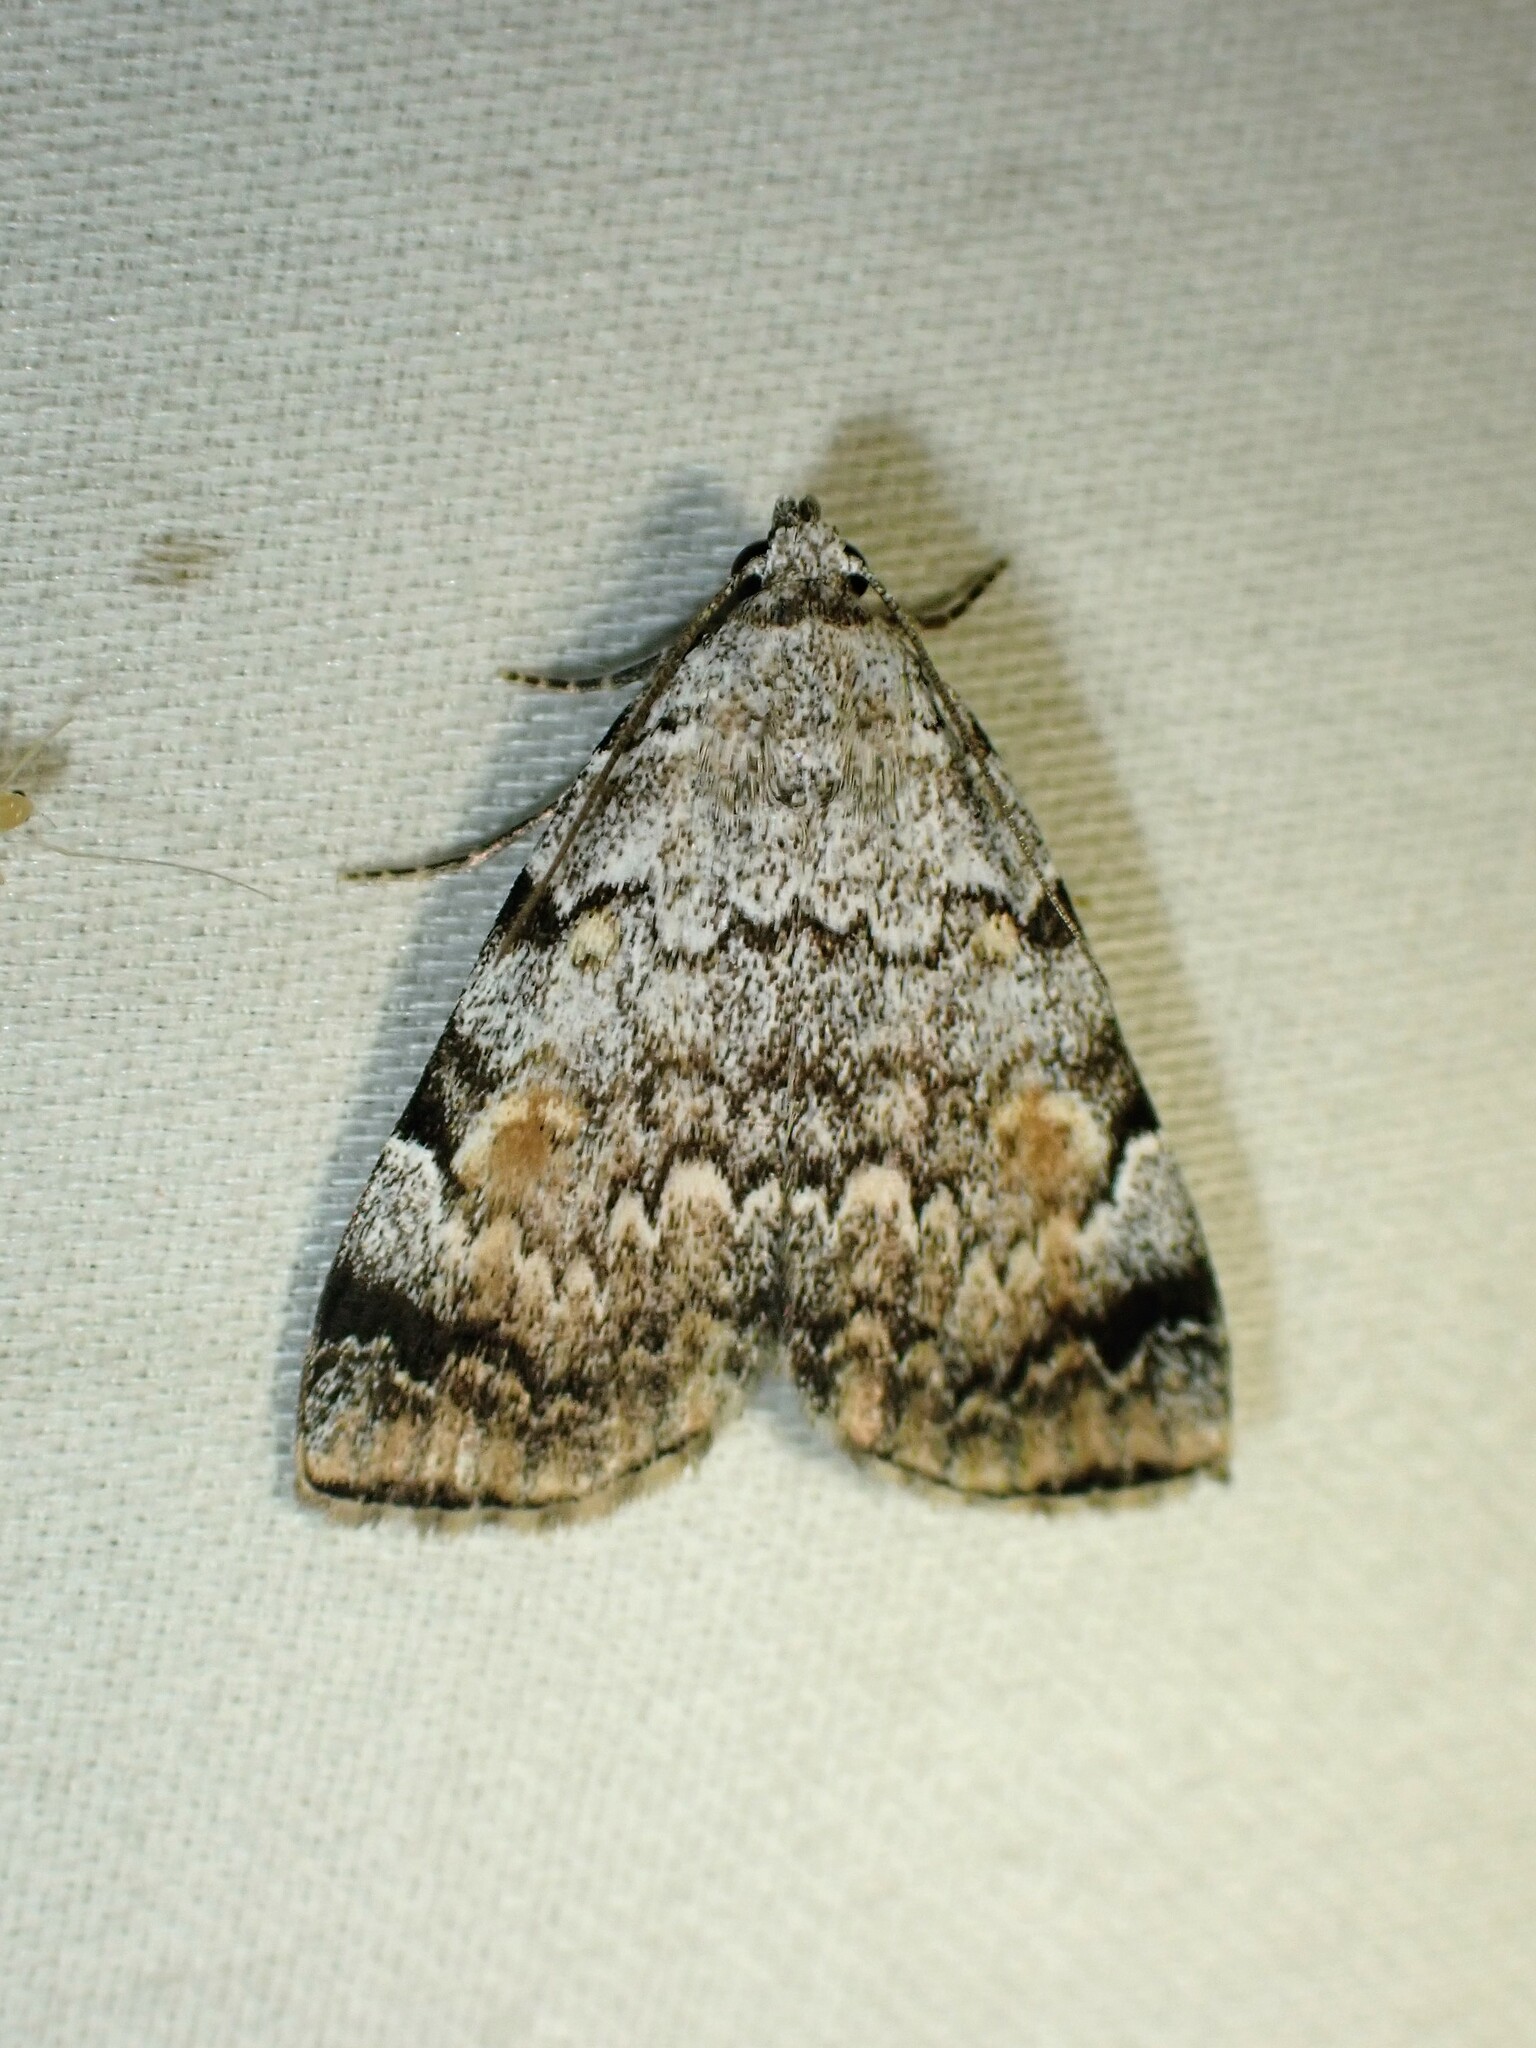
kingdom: Animalia
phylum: Arthropoda
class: Insecta
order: Lepidoptera
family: Erebidae
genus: Idia
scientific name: Idia americalis
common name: American idia moth
